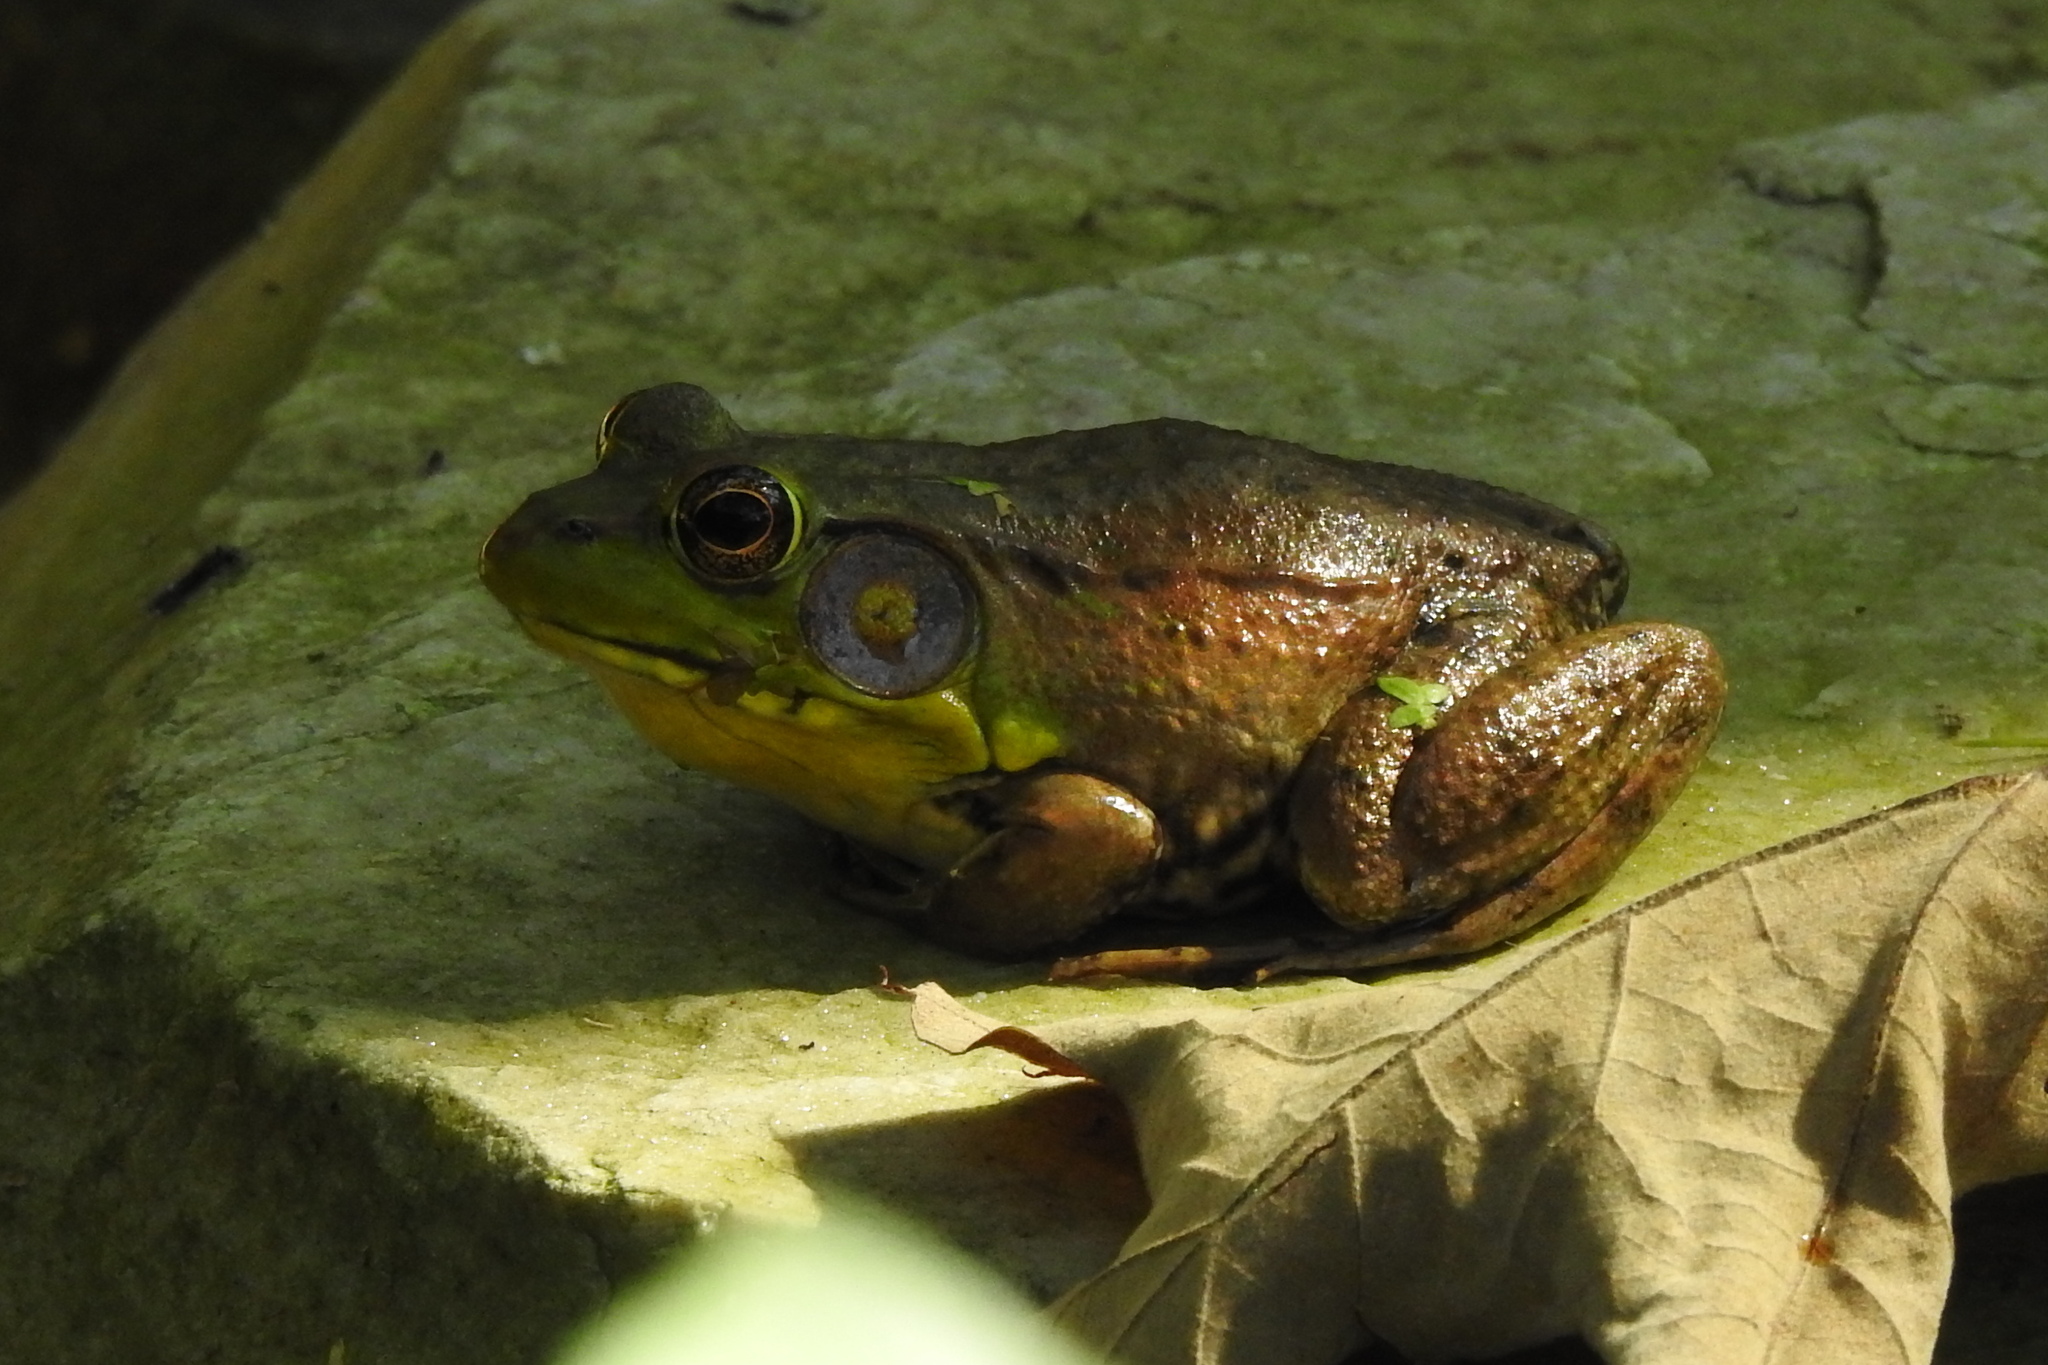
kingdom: Animalia
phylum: Chordata
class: Amphibia
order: Anura
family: Ranidae
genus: Lithobates
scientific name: Lithobates clamitans
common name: Green frog
